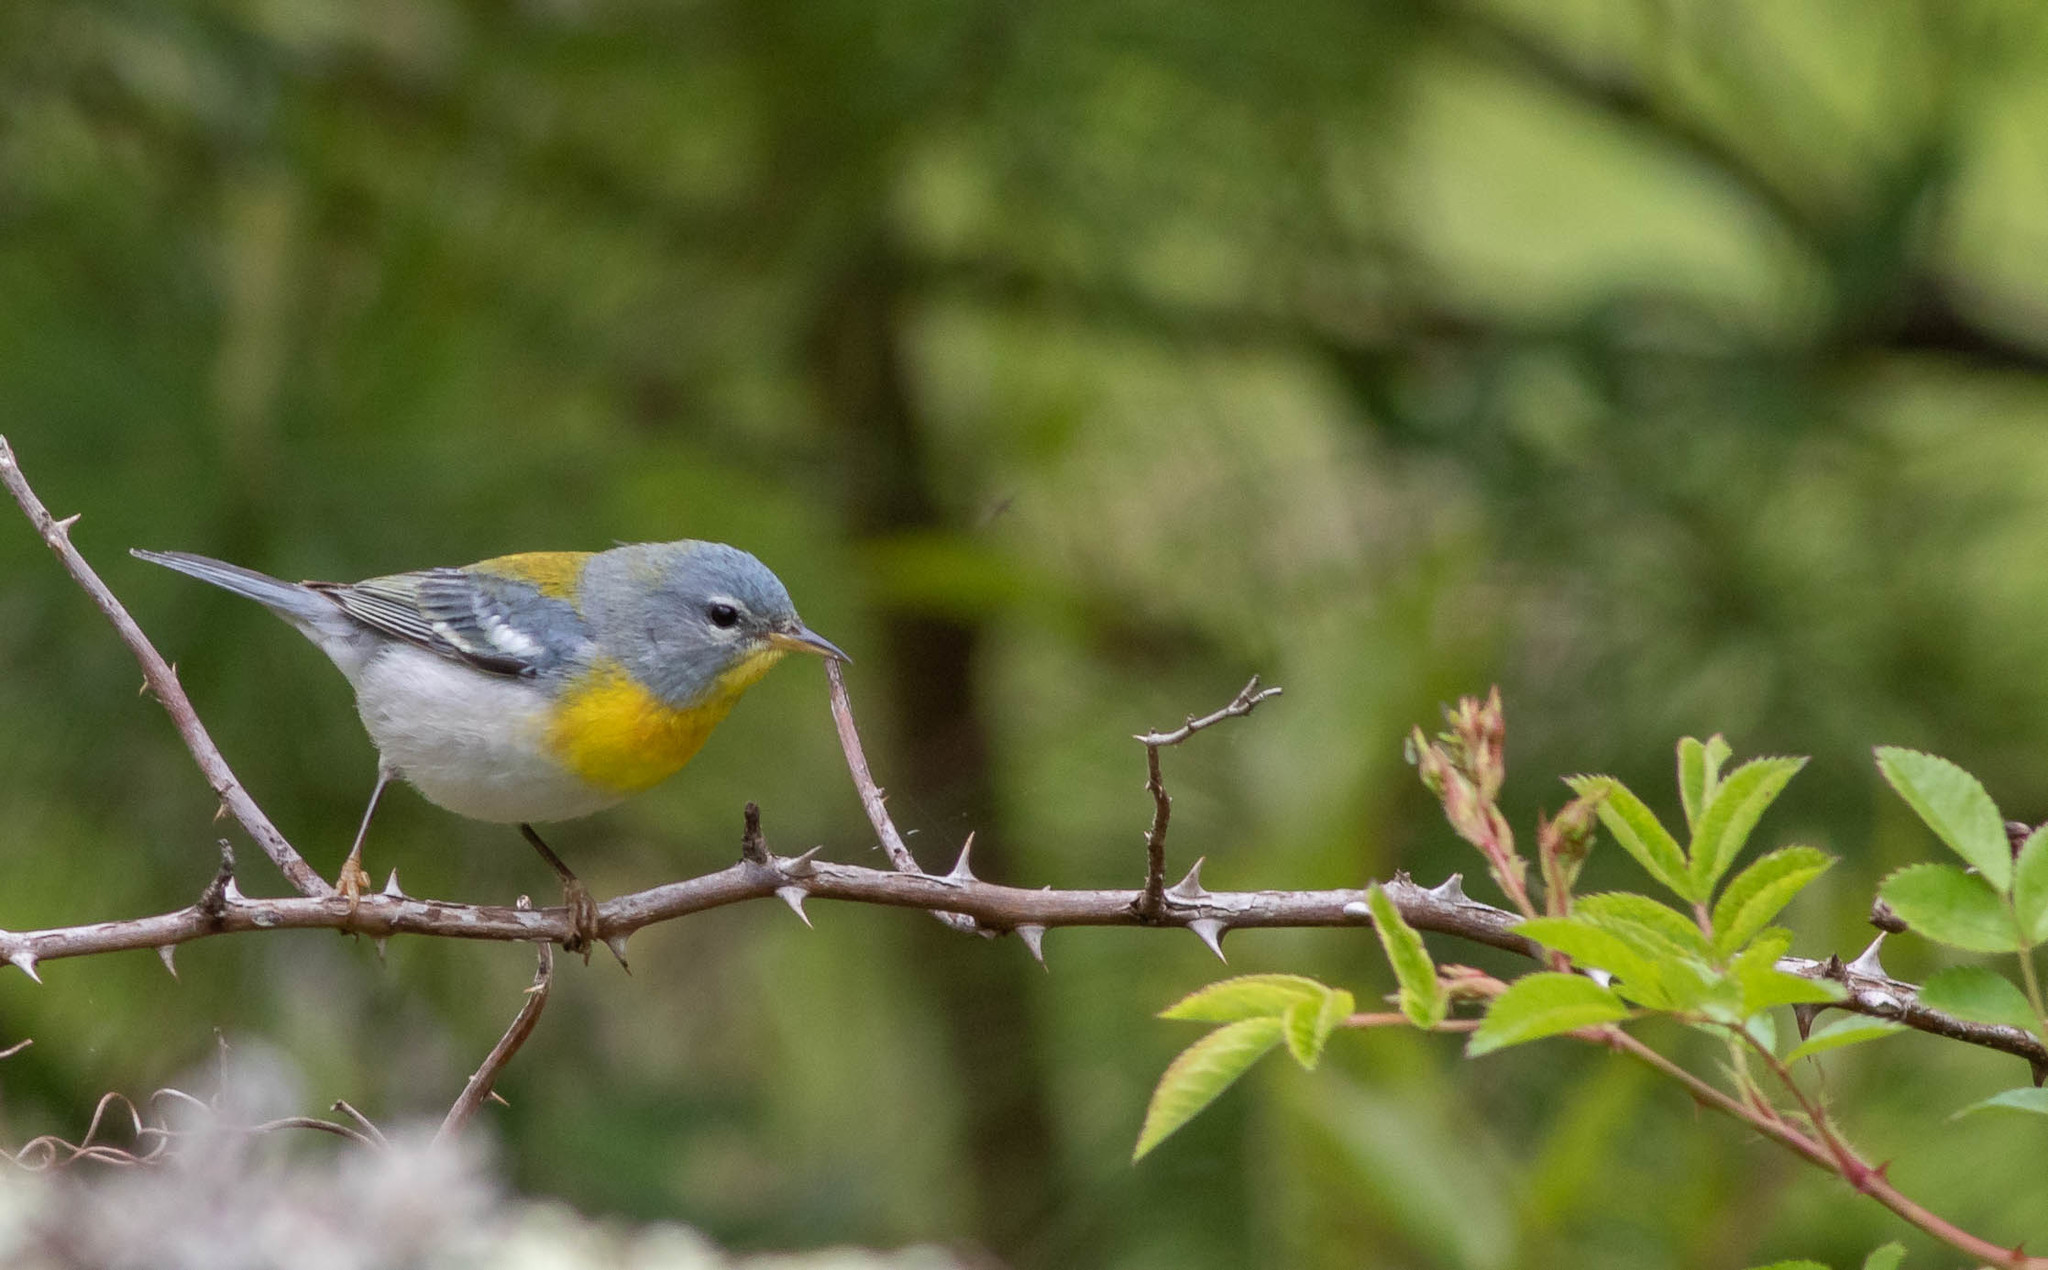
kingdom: Animalia
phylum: Chordata
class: Aves
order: Passeriformes
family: Parulidae
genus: Setophaga
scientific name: Setophaga americana
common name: Northern parula
